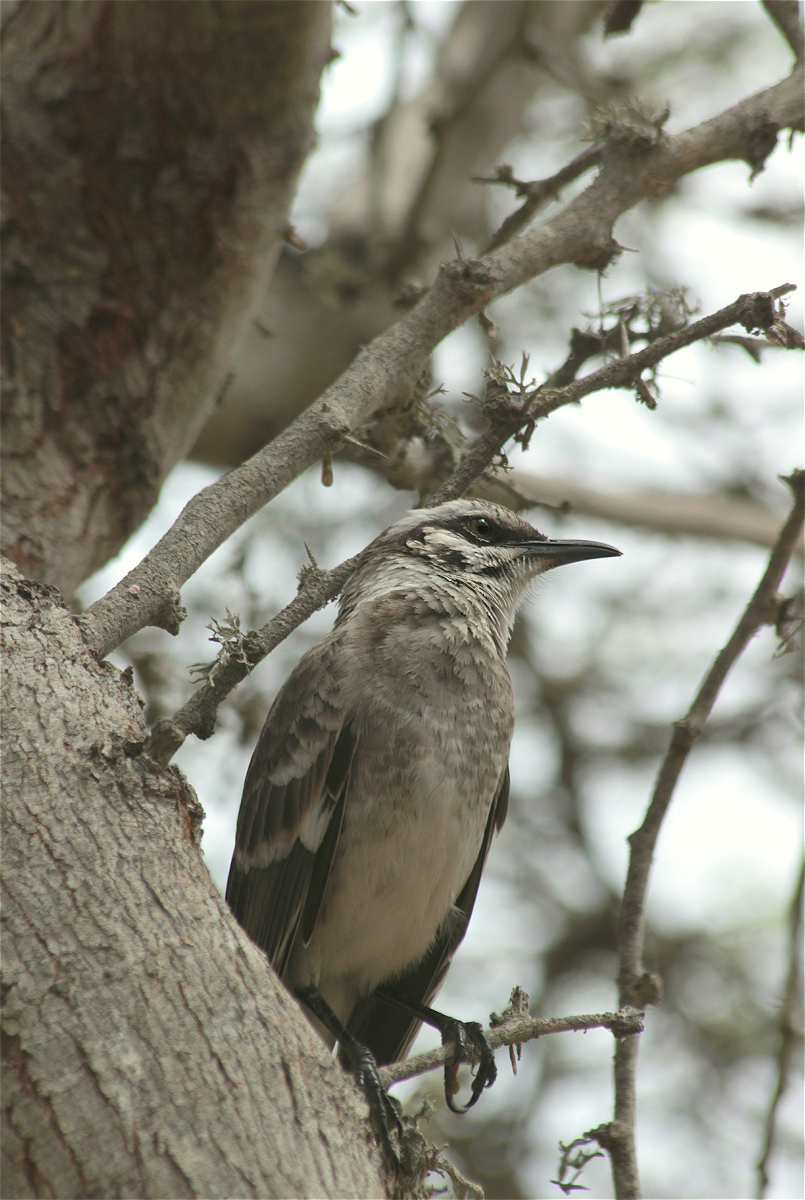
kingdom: Animalia
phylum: Chordata
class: Aves
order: Passeriformes
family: Mimidae
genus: Mimus
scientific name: Mimus longicaudatus
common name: Long-tailed mockingbird
